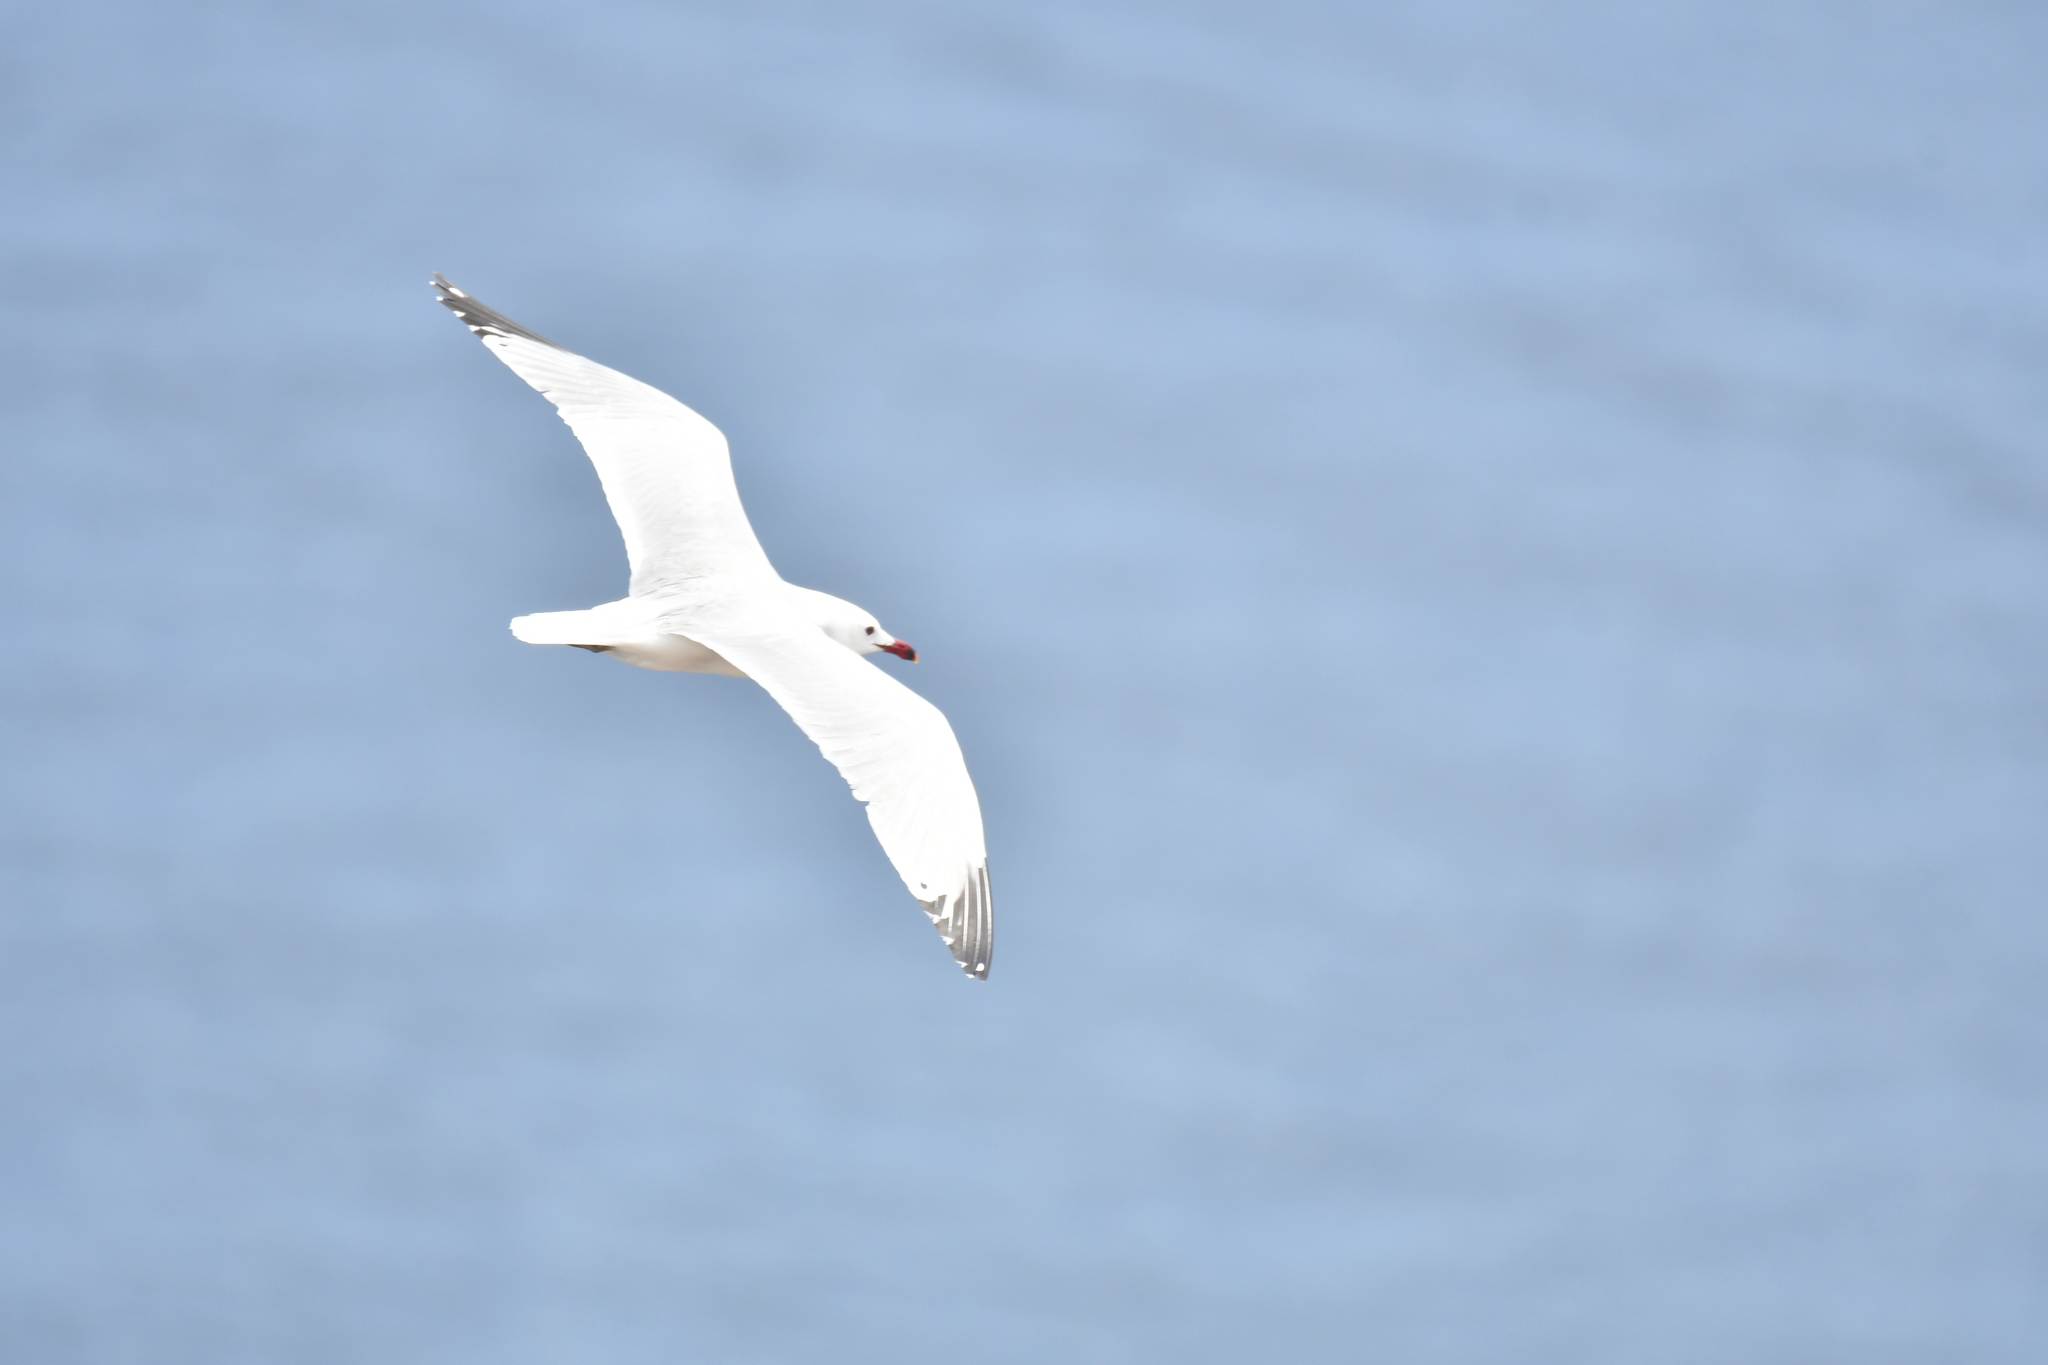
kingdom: Animalia
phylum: Chordata
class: Aves
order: Charadriiformes
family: Laridae
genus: Ichthyaetus
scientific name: Ichthyaetus audouinii
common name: Audouin's gull
